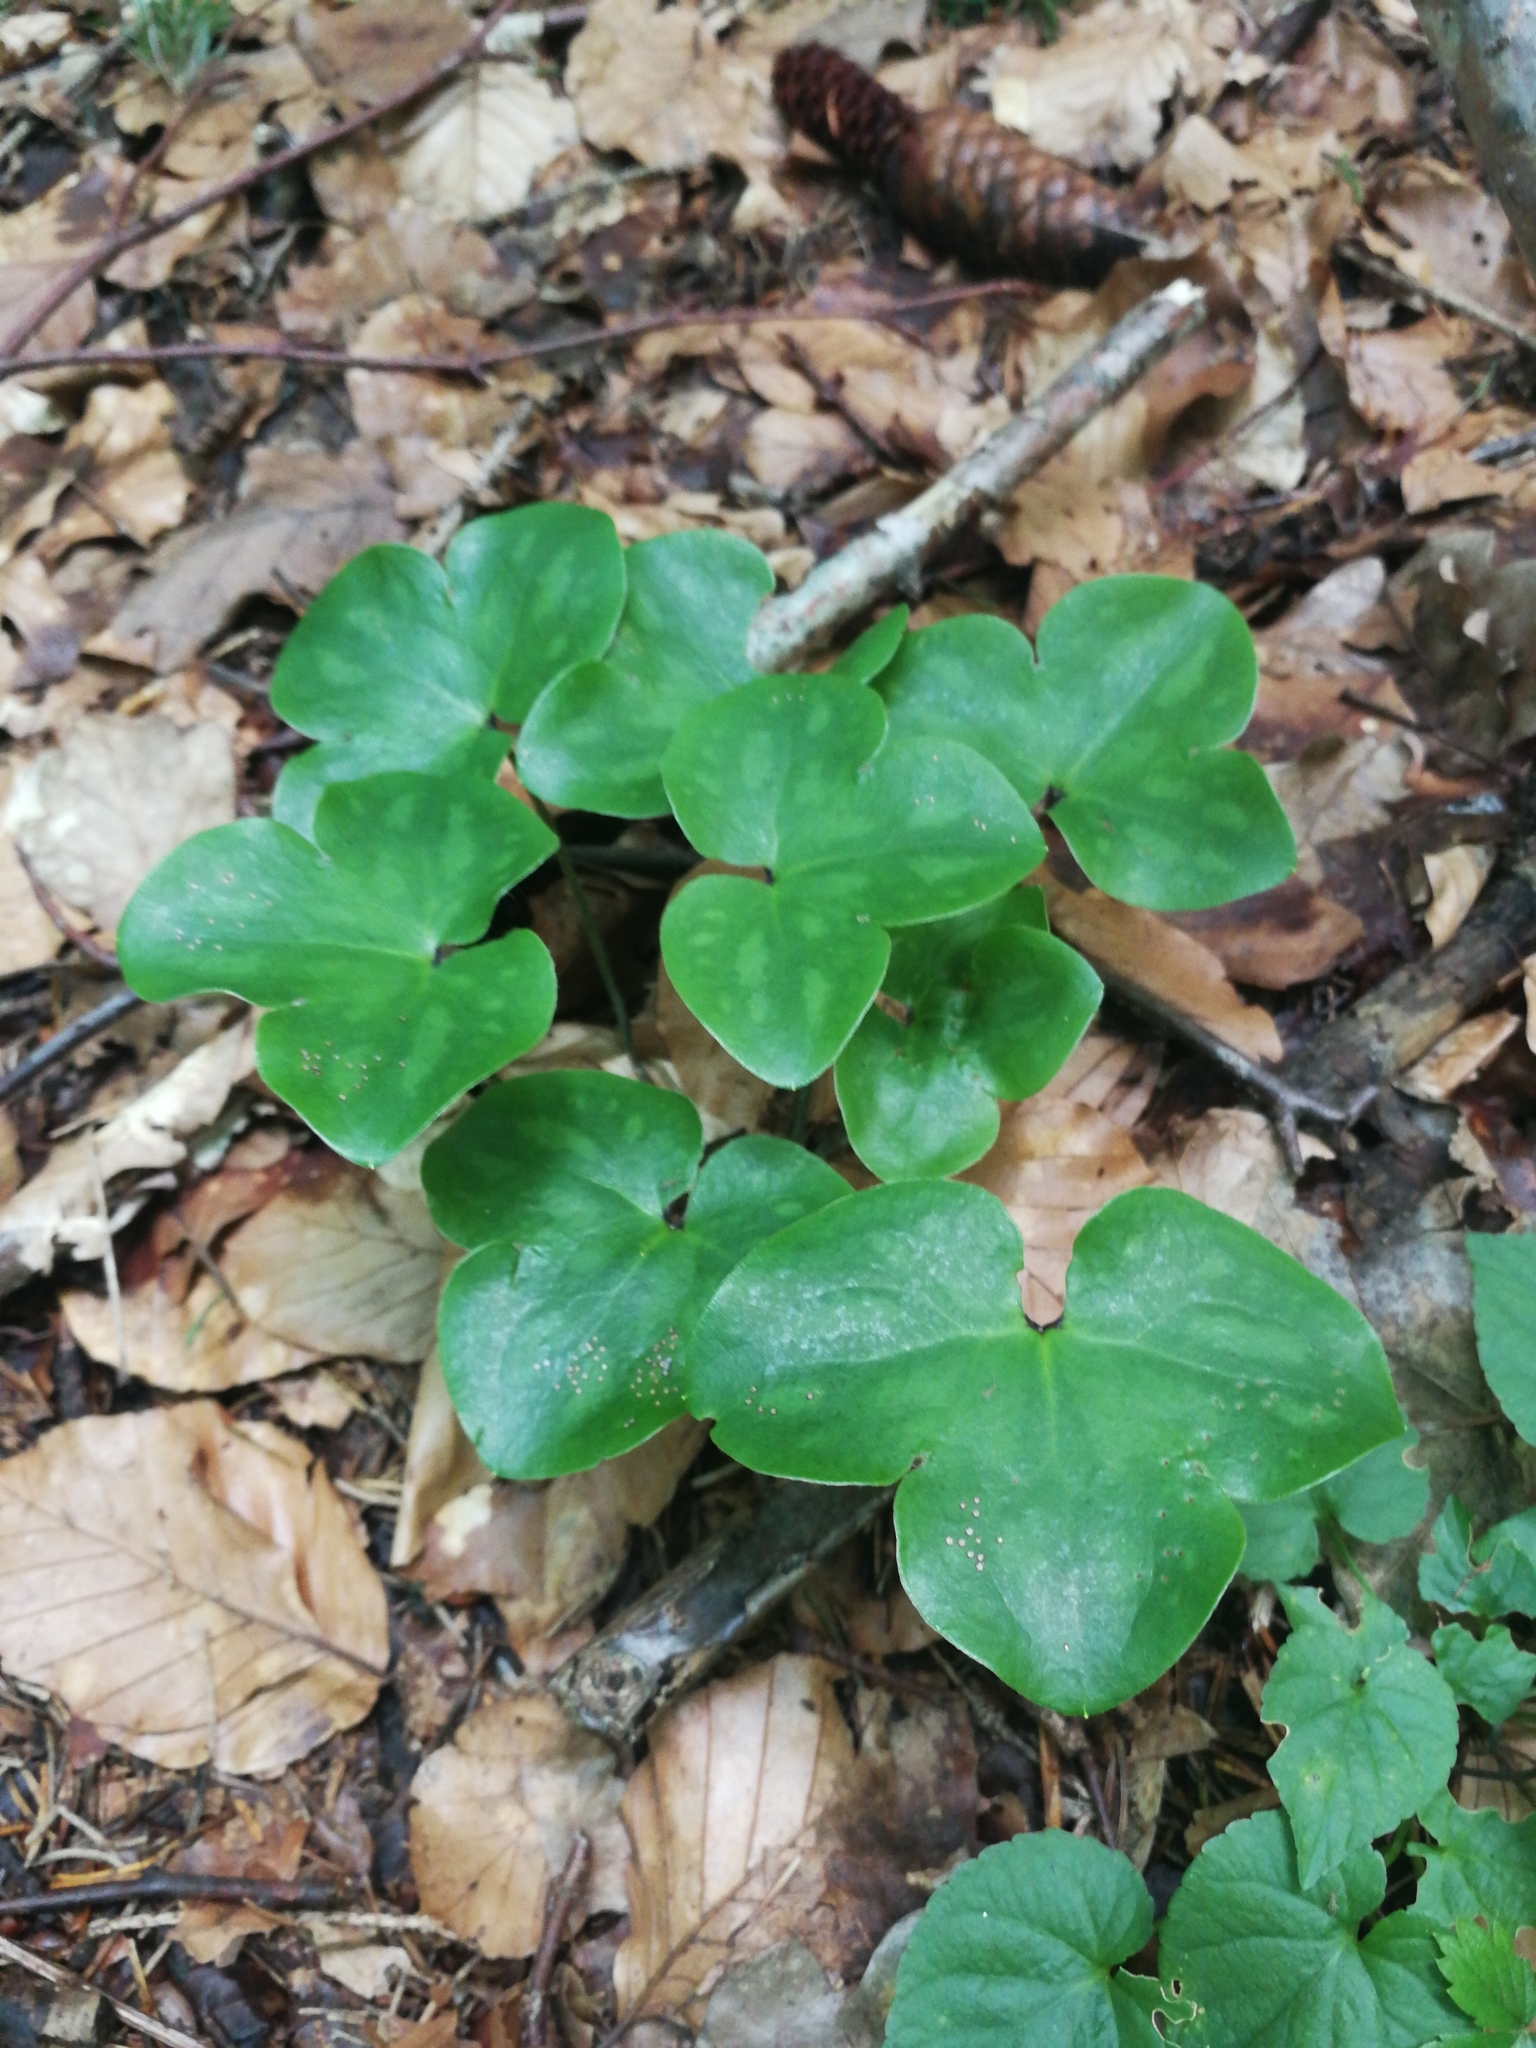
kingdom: Plantae
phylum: Tracheophyta
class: Magnoliopsida
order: Ranunculales
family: Ranunculaceae
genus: Hepatica
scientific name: Hepatica nobilis
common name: Liverleaf
